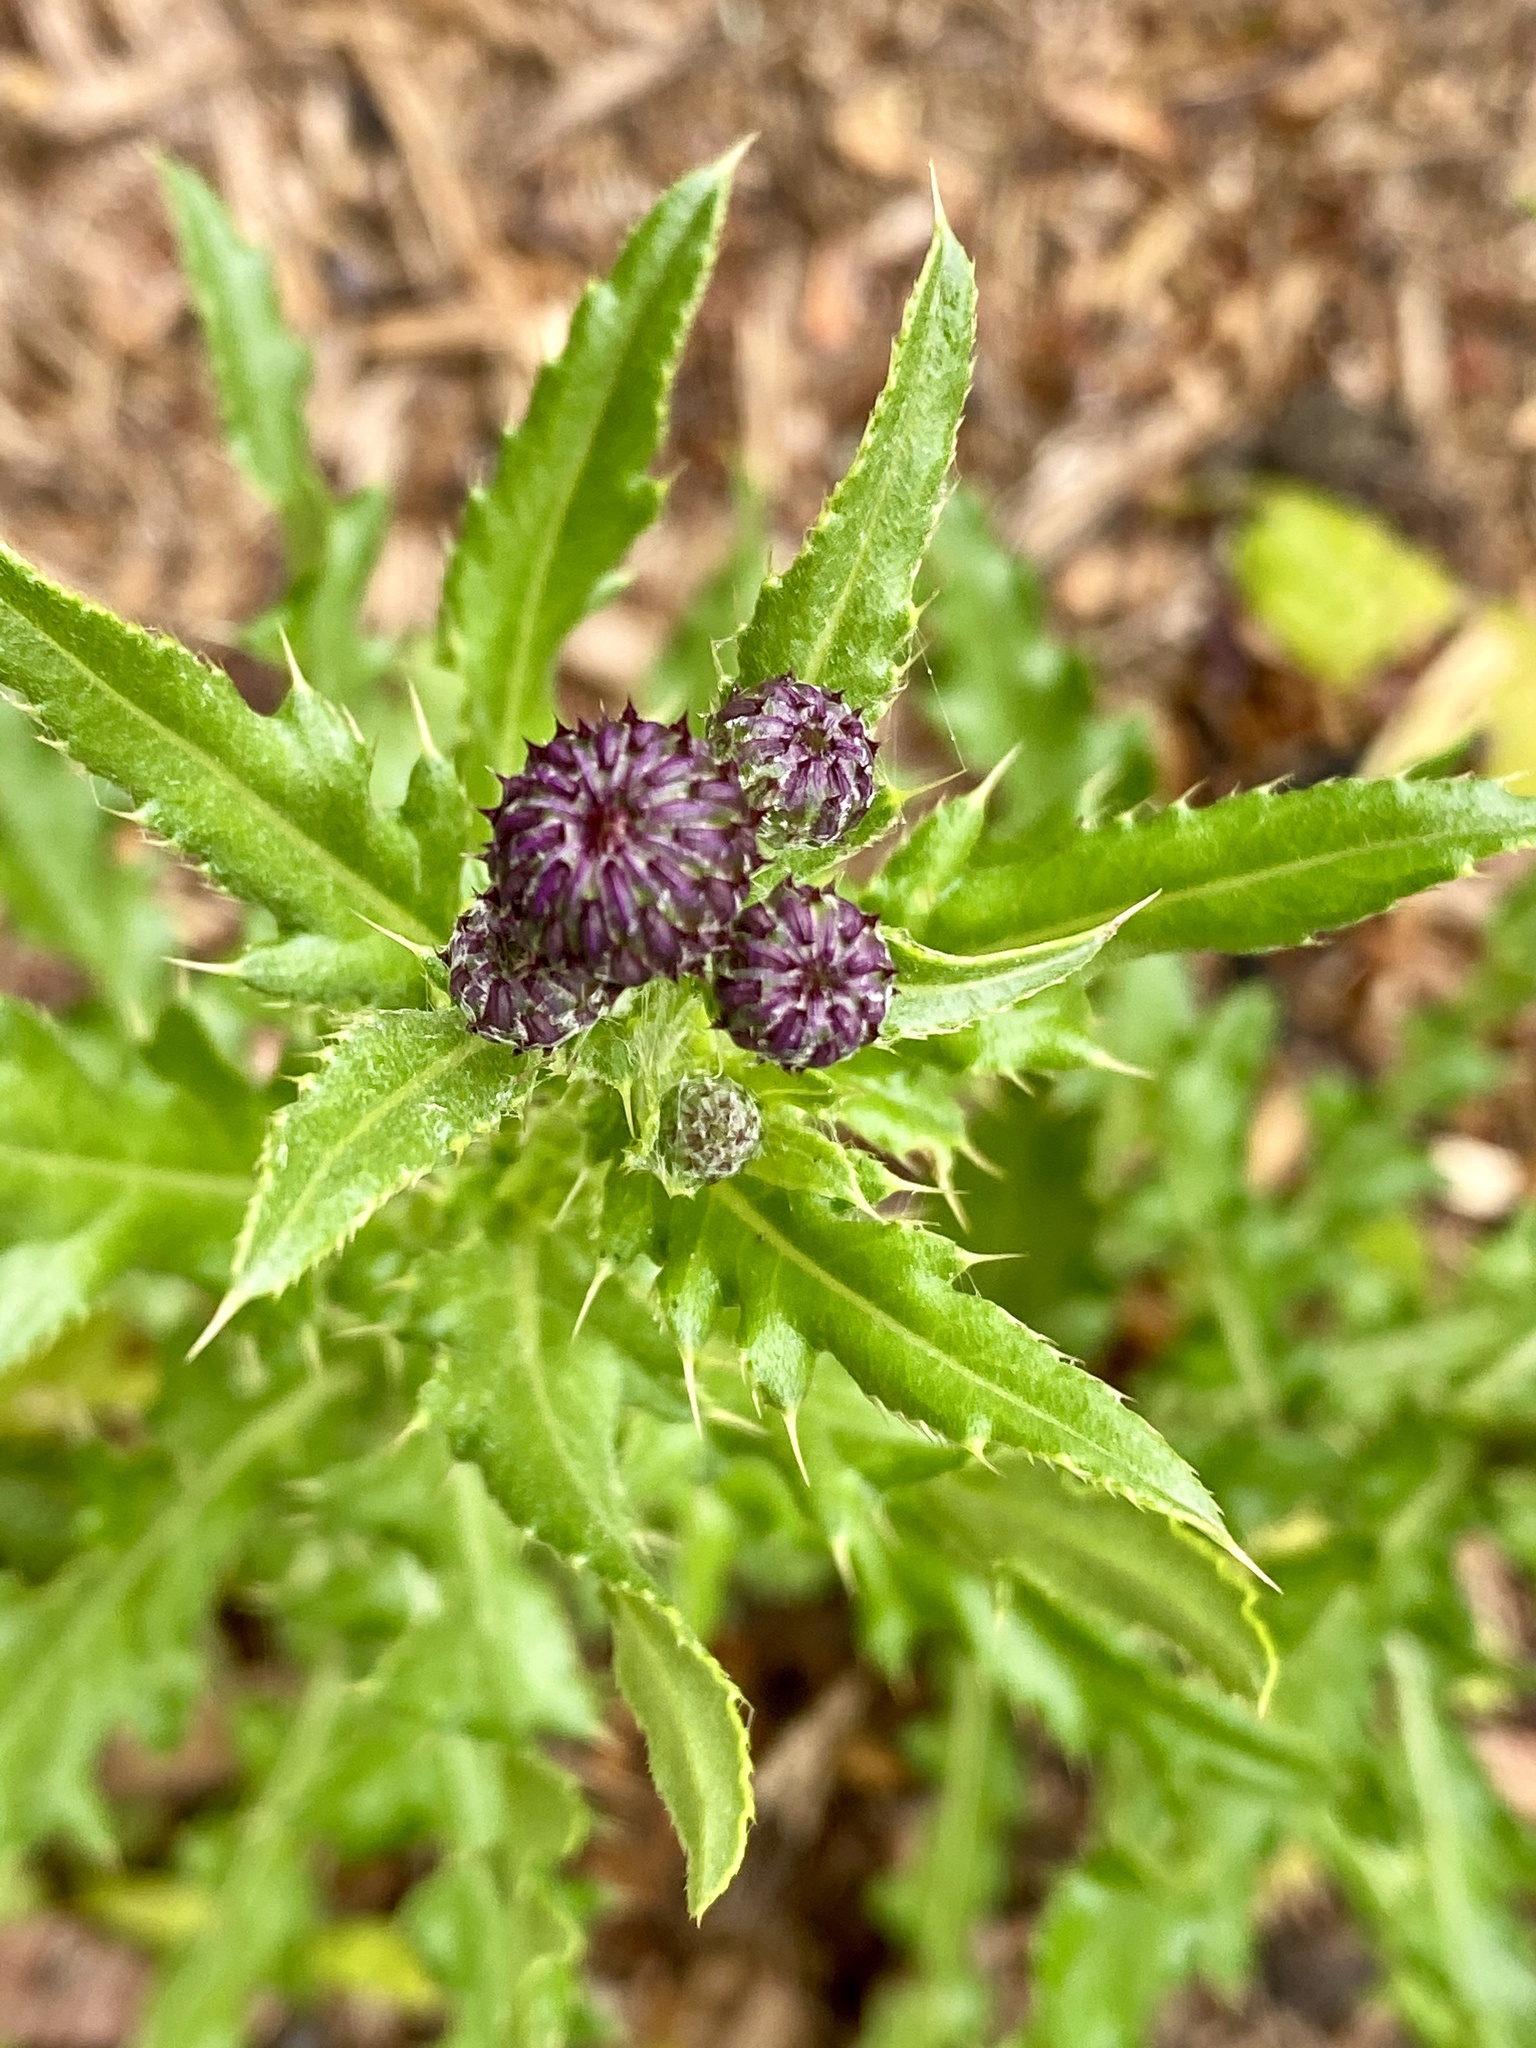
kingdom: Plantae
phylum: Tracheophyta
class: Magnoliopsida
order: Asterales
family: Asteraceae
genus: Cirsium
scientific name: Cirsium arvense
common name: Creeping thistle
